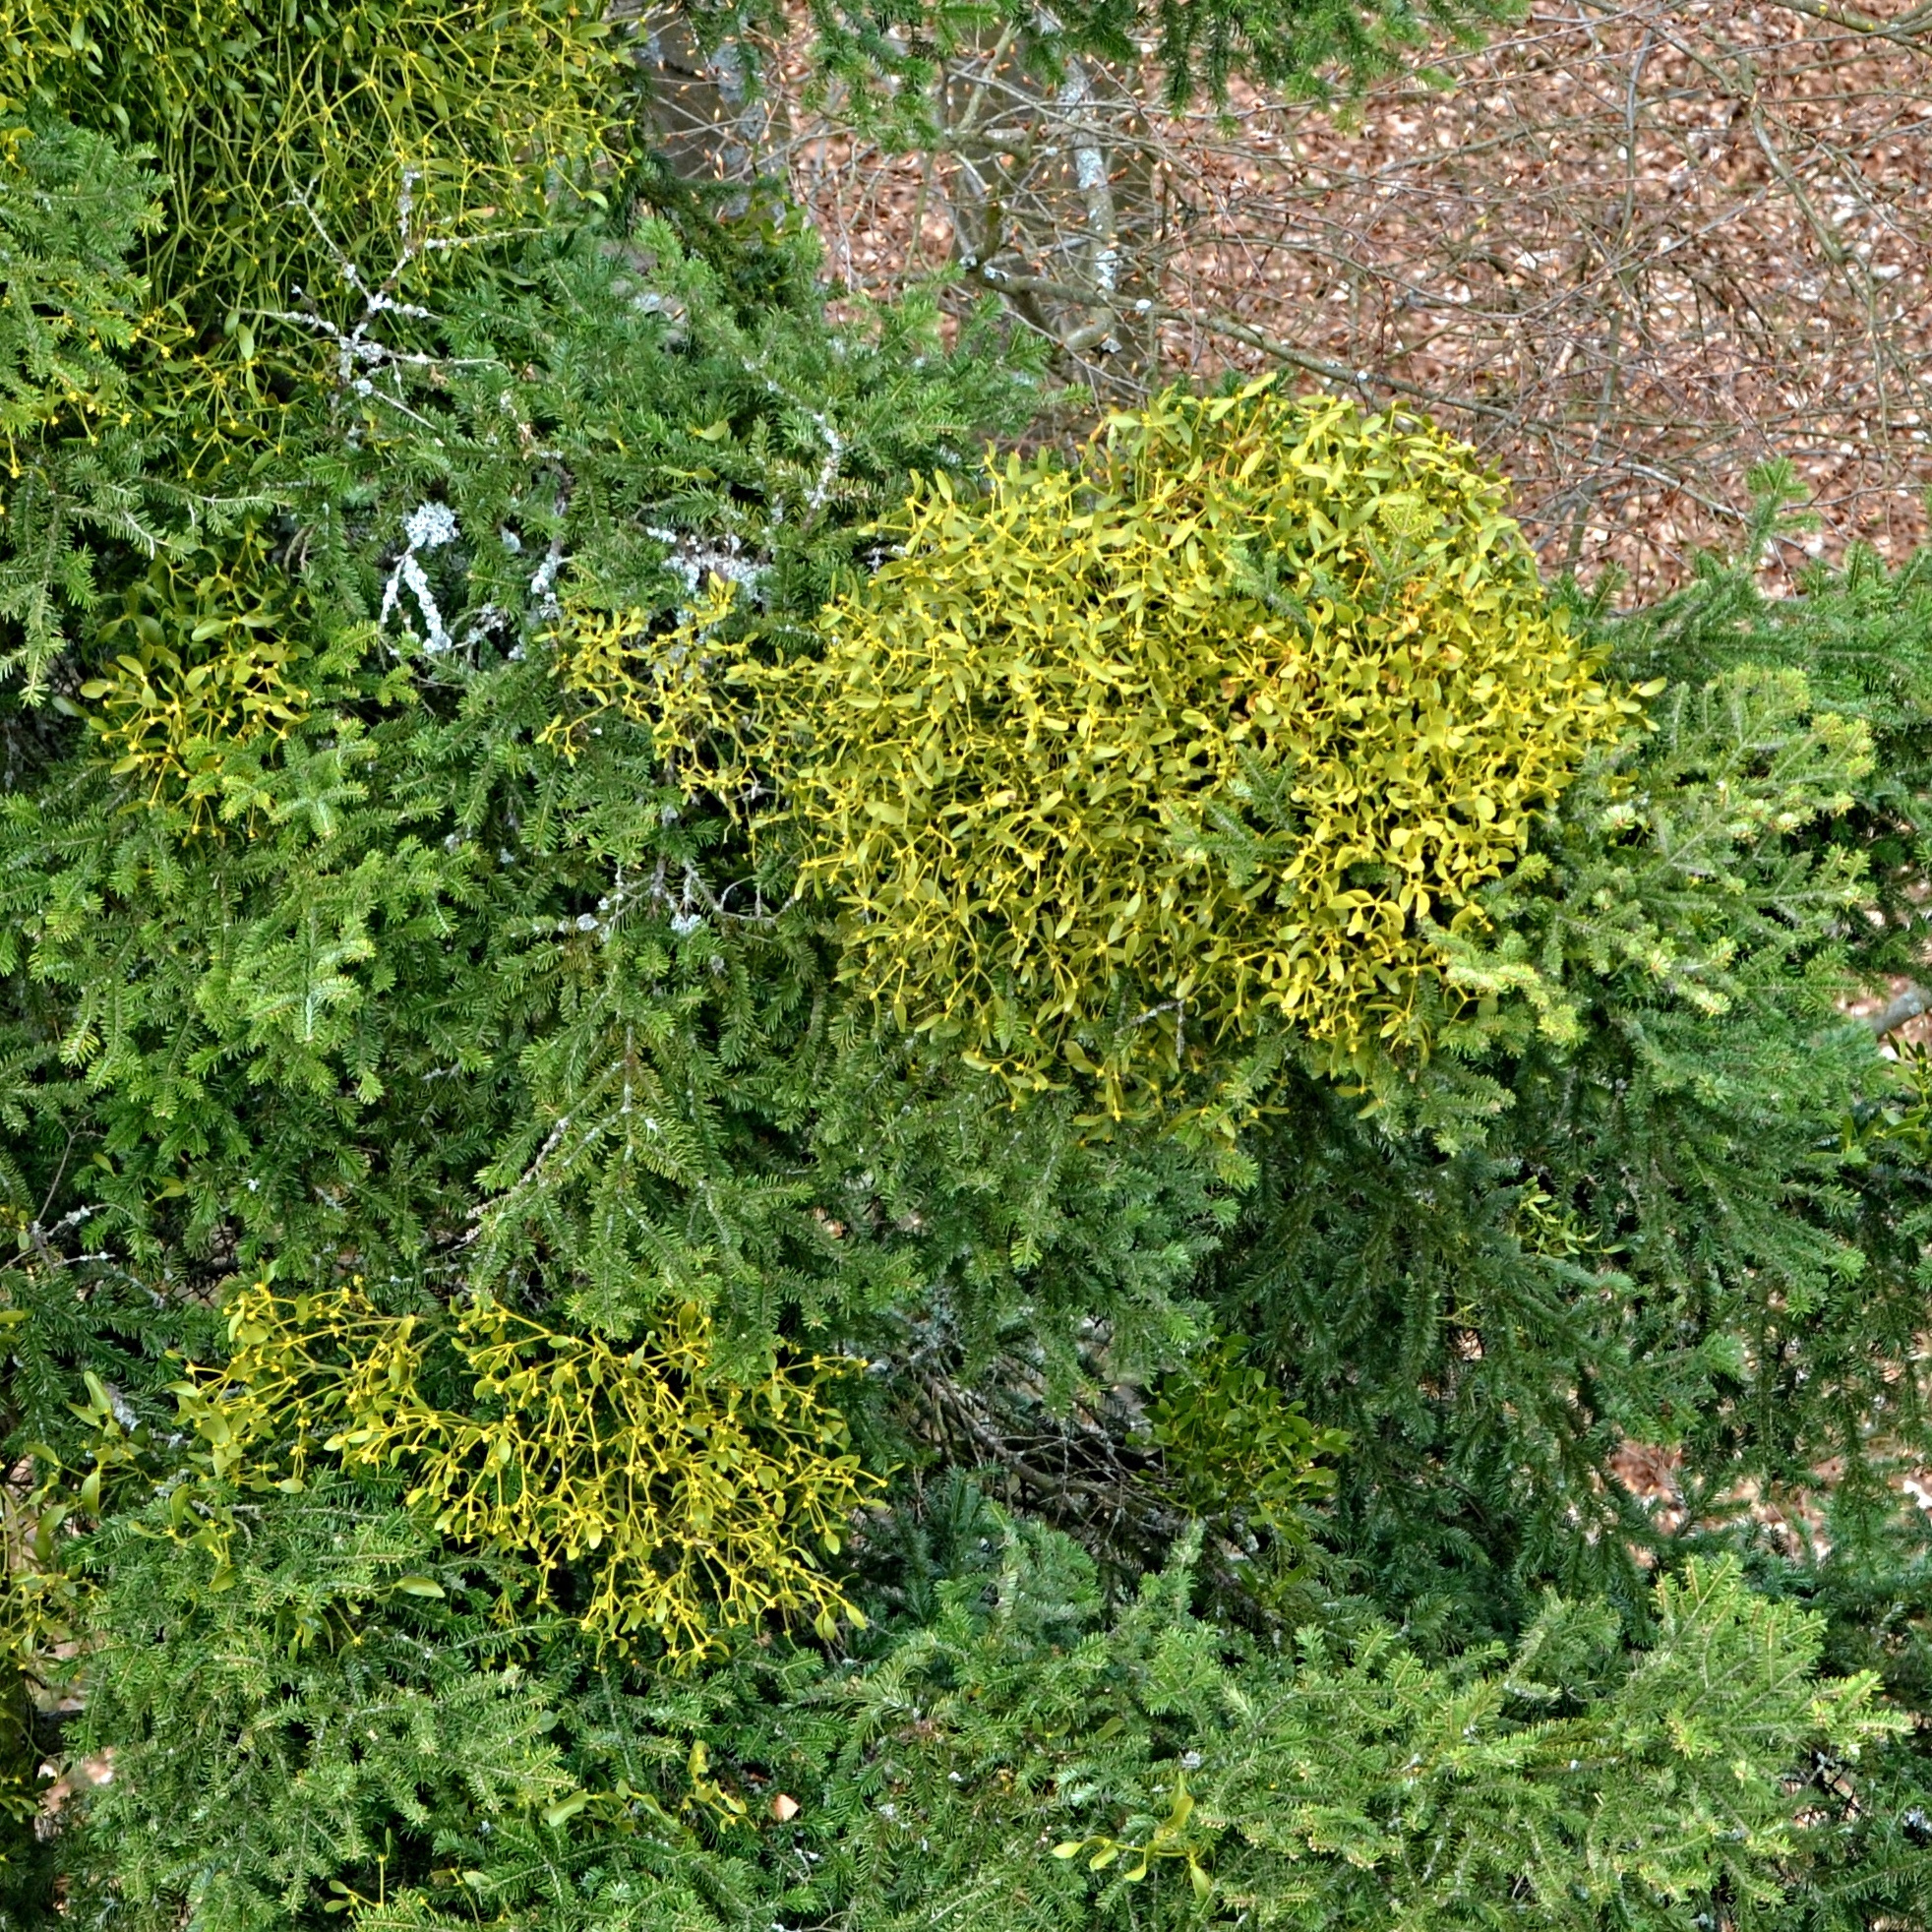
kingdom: Plantae
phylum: Tracheophyta
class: Magnoliopsida
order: Santalales
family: Viscaceae
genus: Viscum
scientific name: Viscum album
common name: Mistletoe
